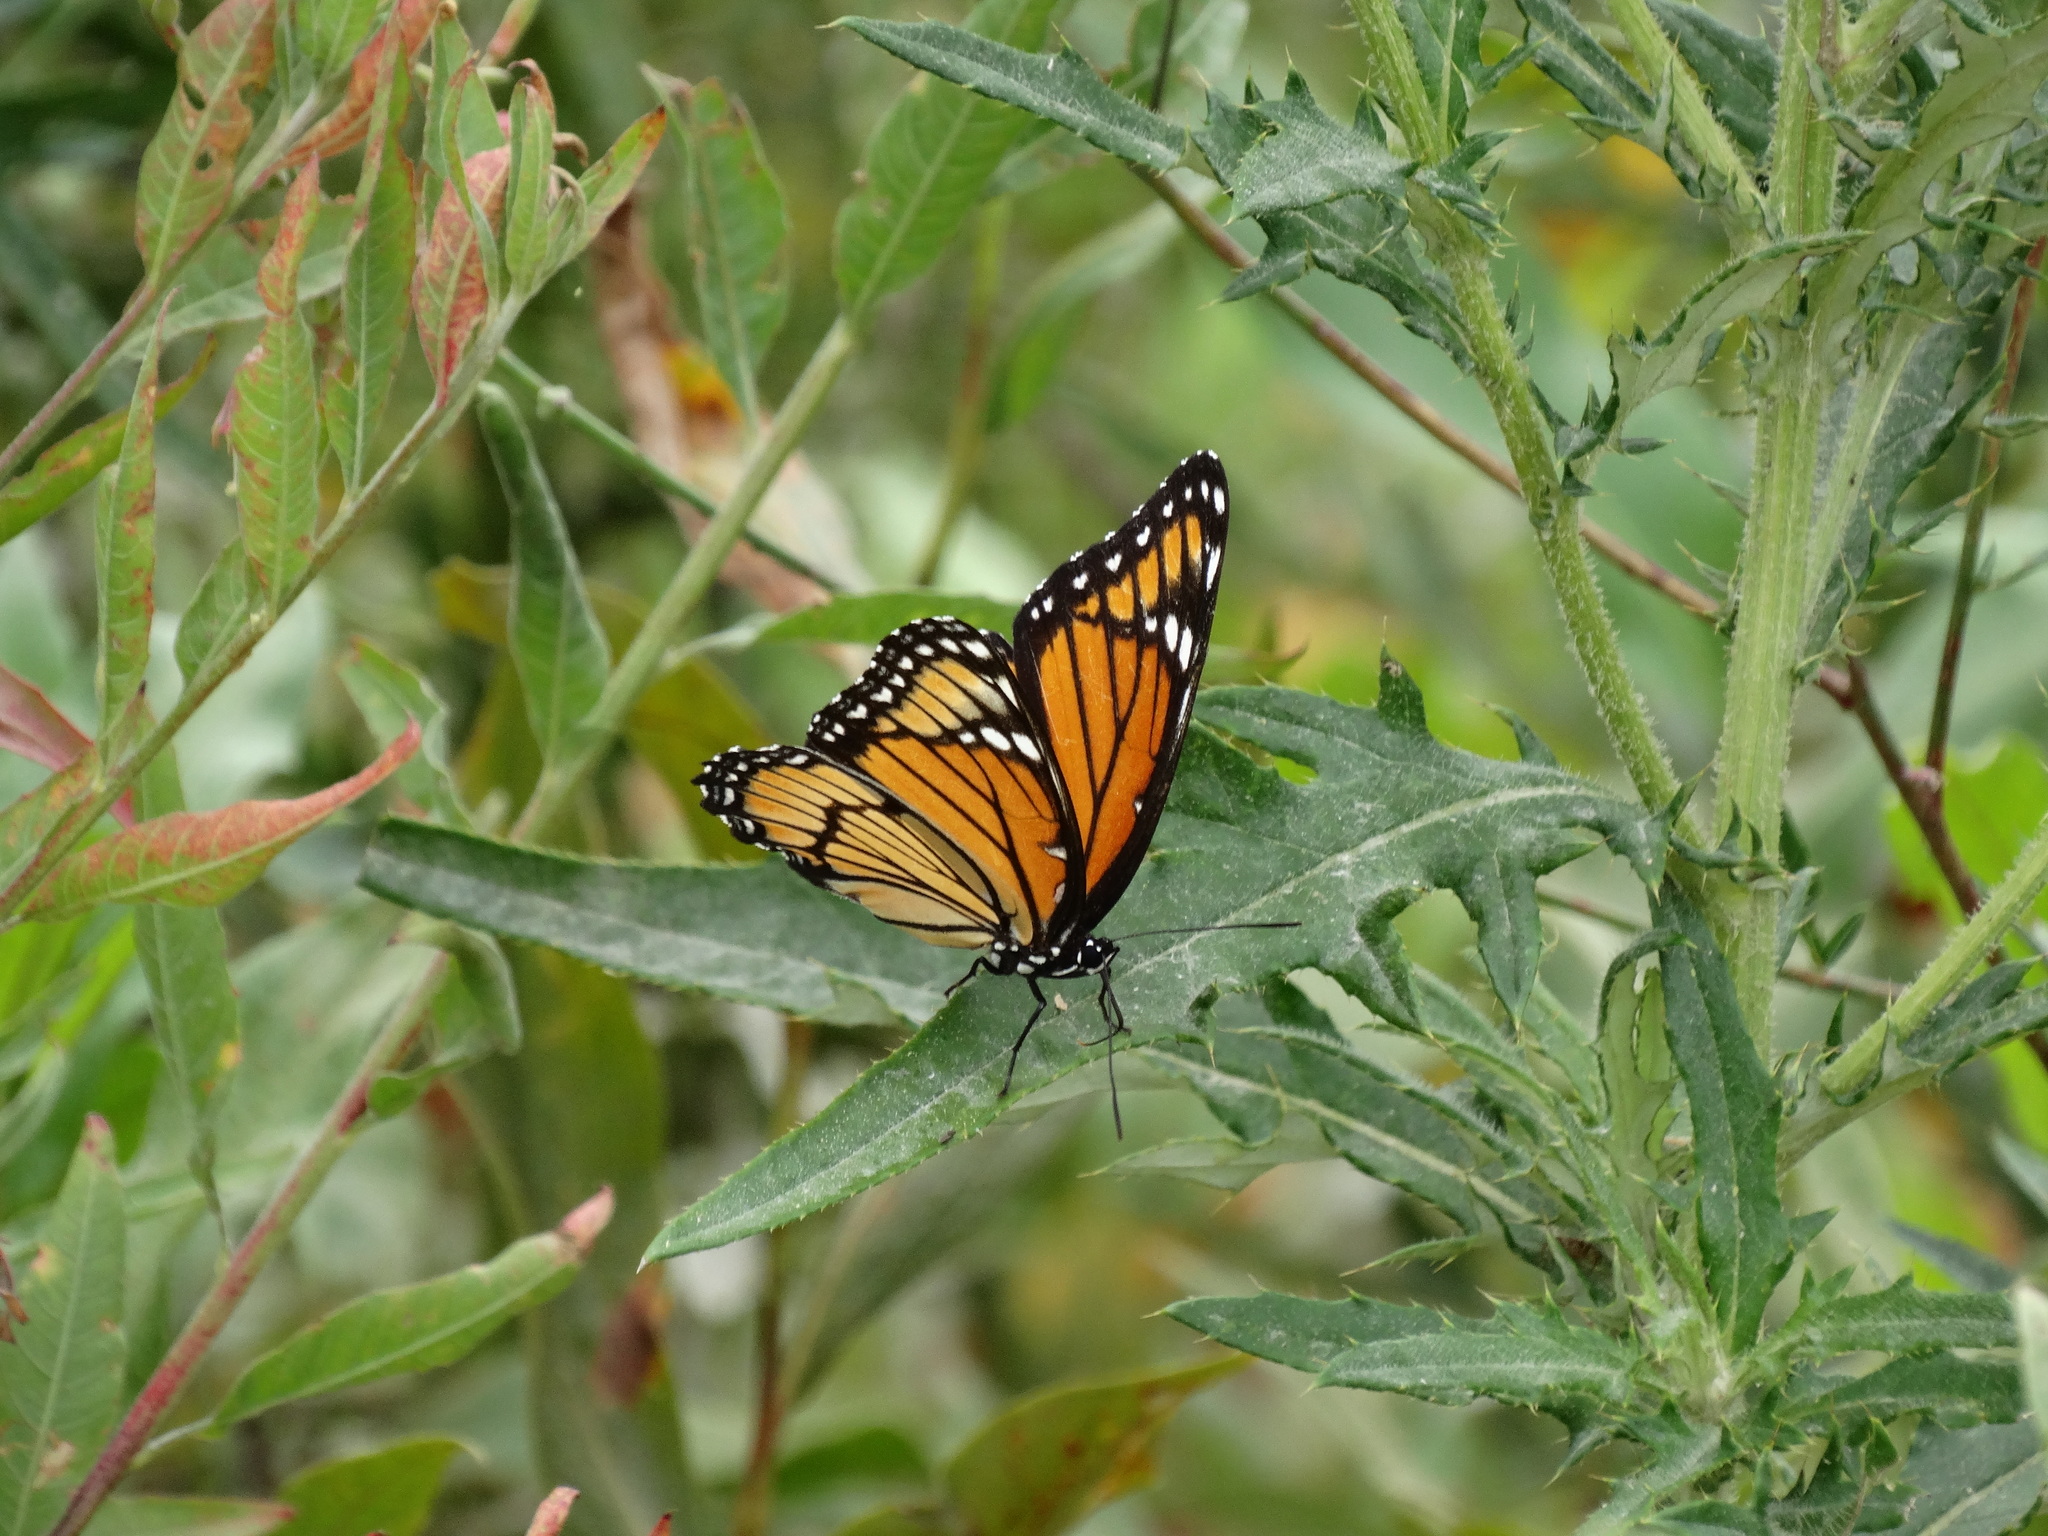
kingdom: Animalia
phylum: Arthropoda
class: Insecta
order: Lepidoptera
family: Nymphalidae
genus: Limenitis
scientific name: Limenitis archippus
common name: Viceroy
